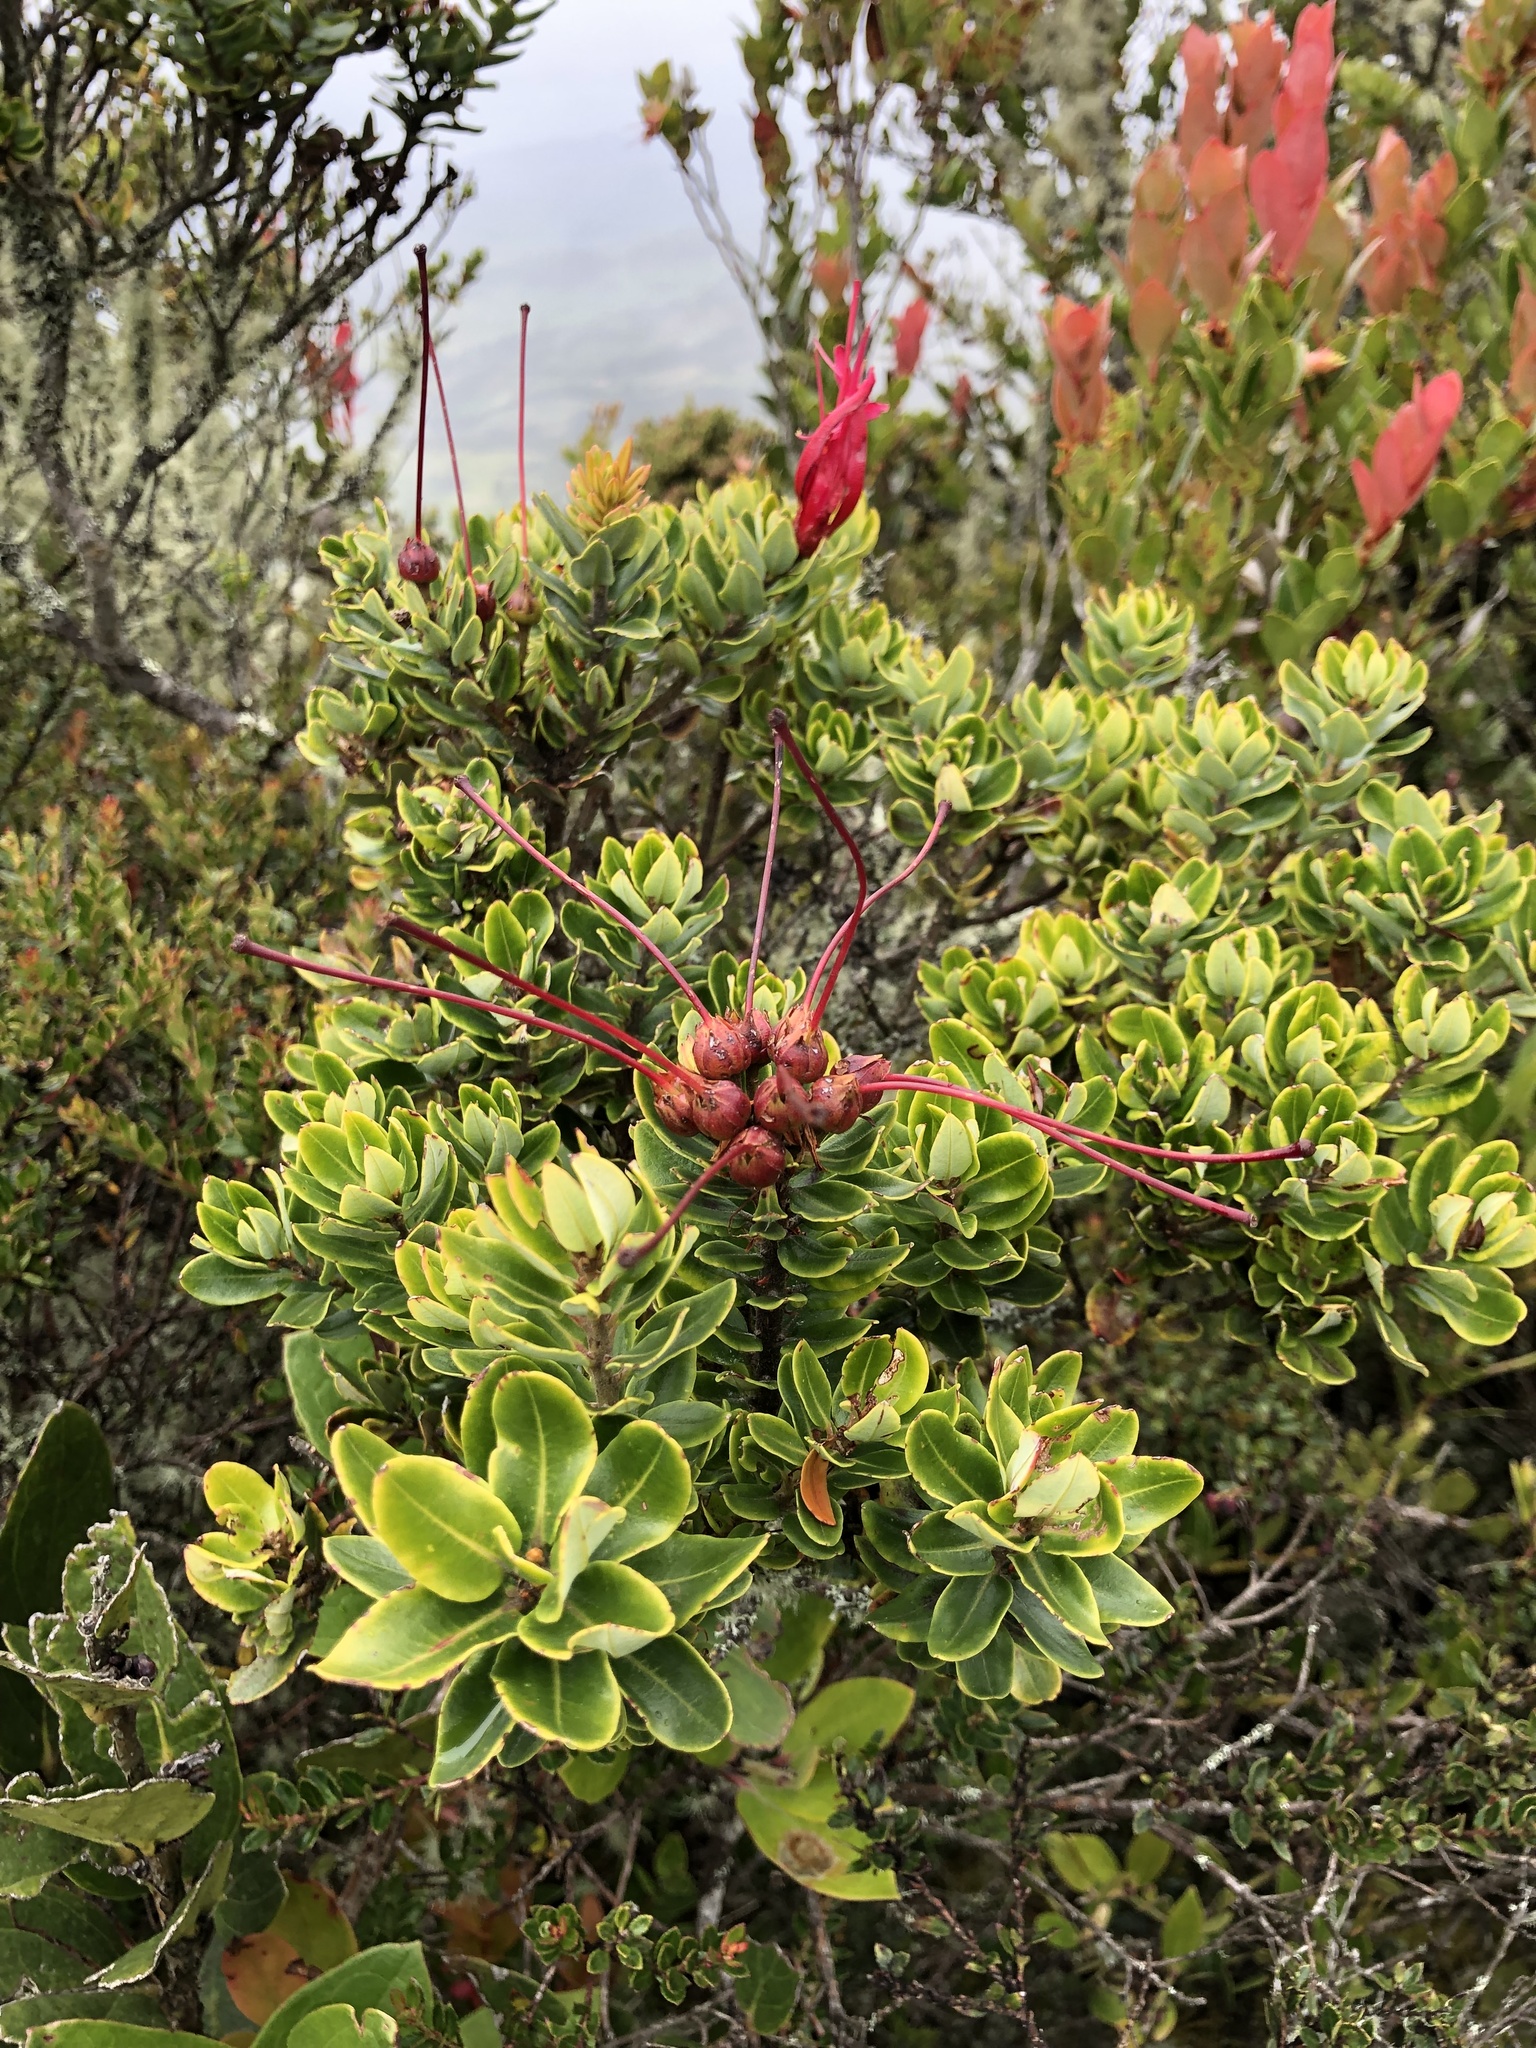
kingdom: Plantae
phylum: Tracheophyta
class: Magnoliopsida
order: Ericales
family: Ericaceae
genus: Bejaria
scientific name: Bejaria resinosa
